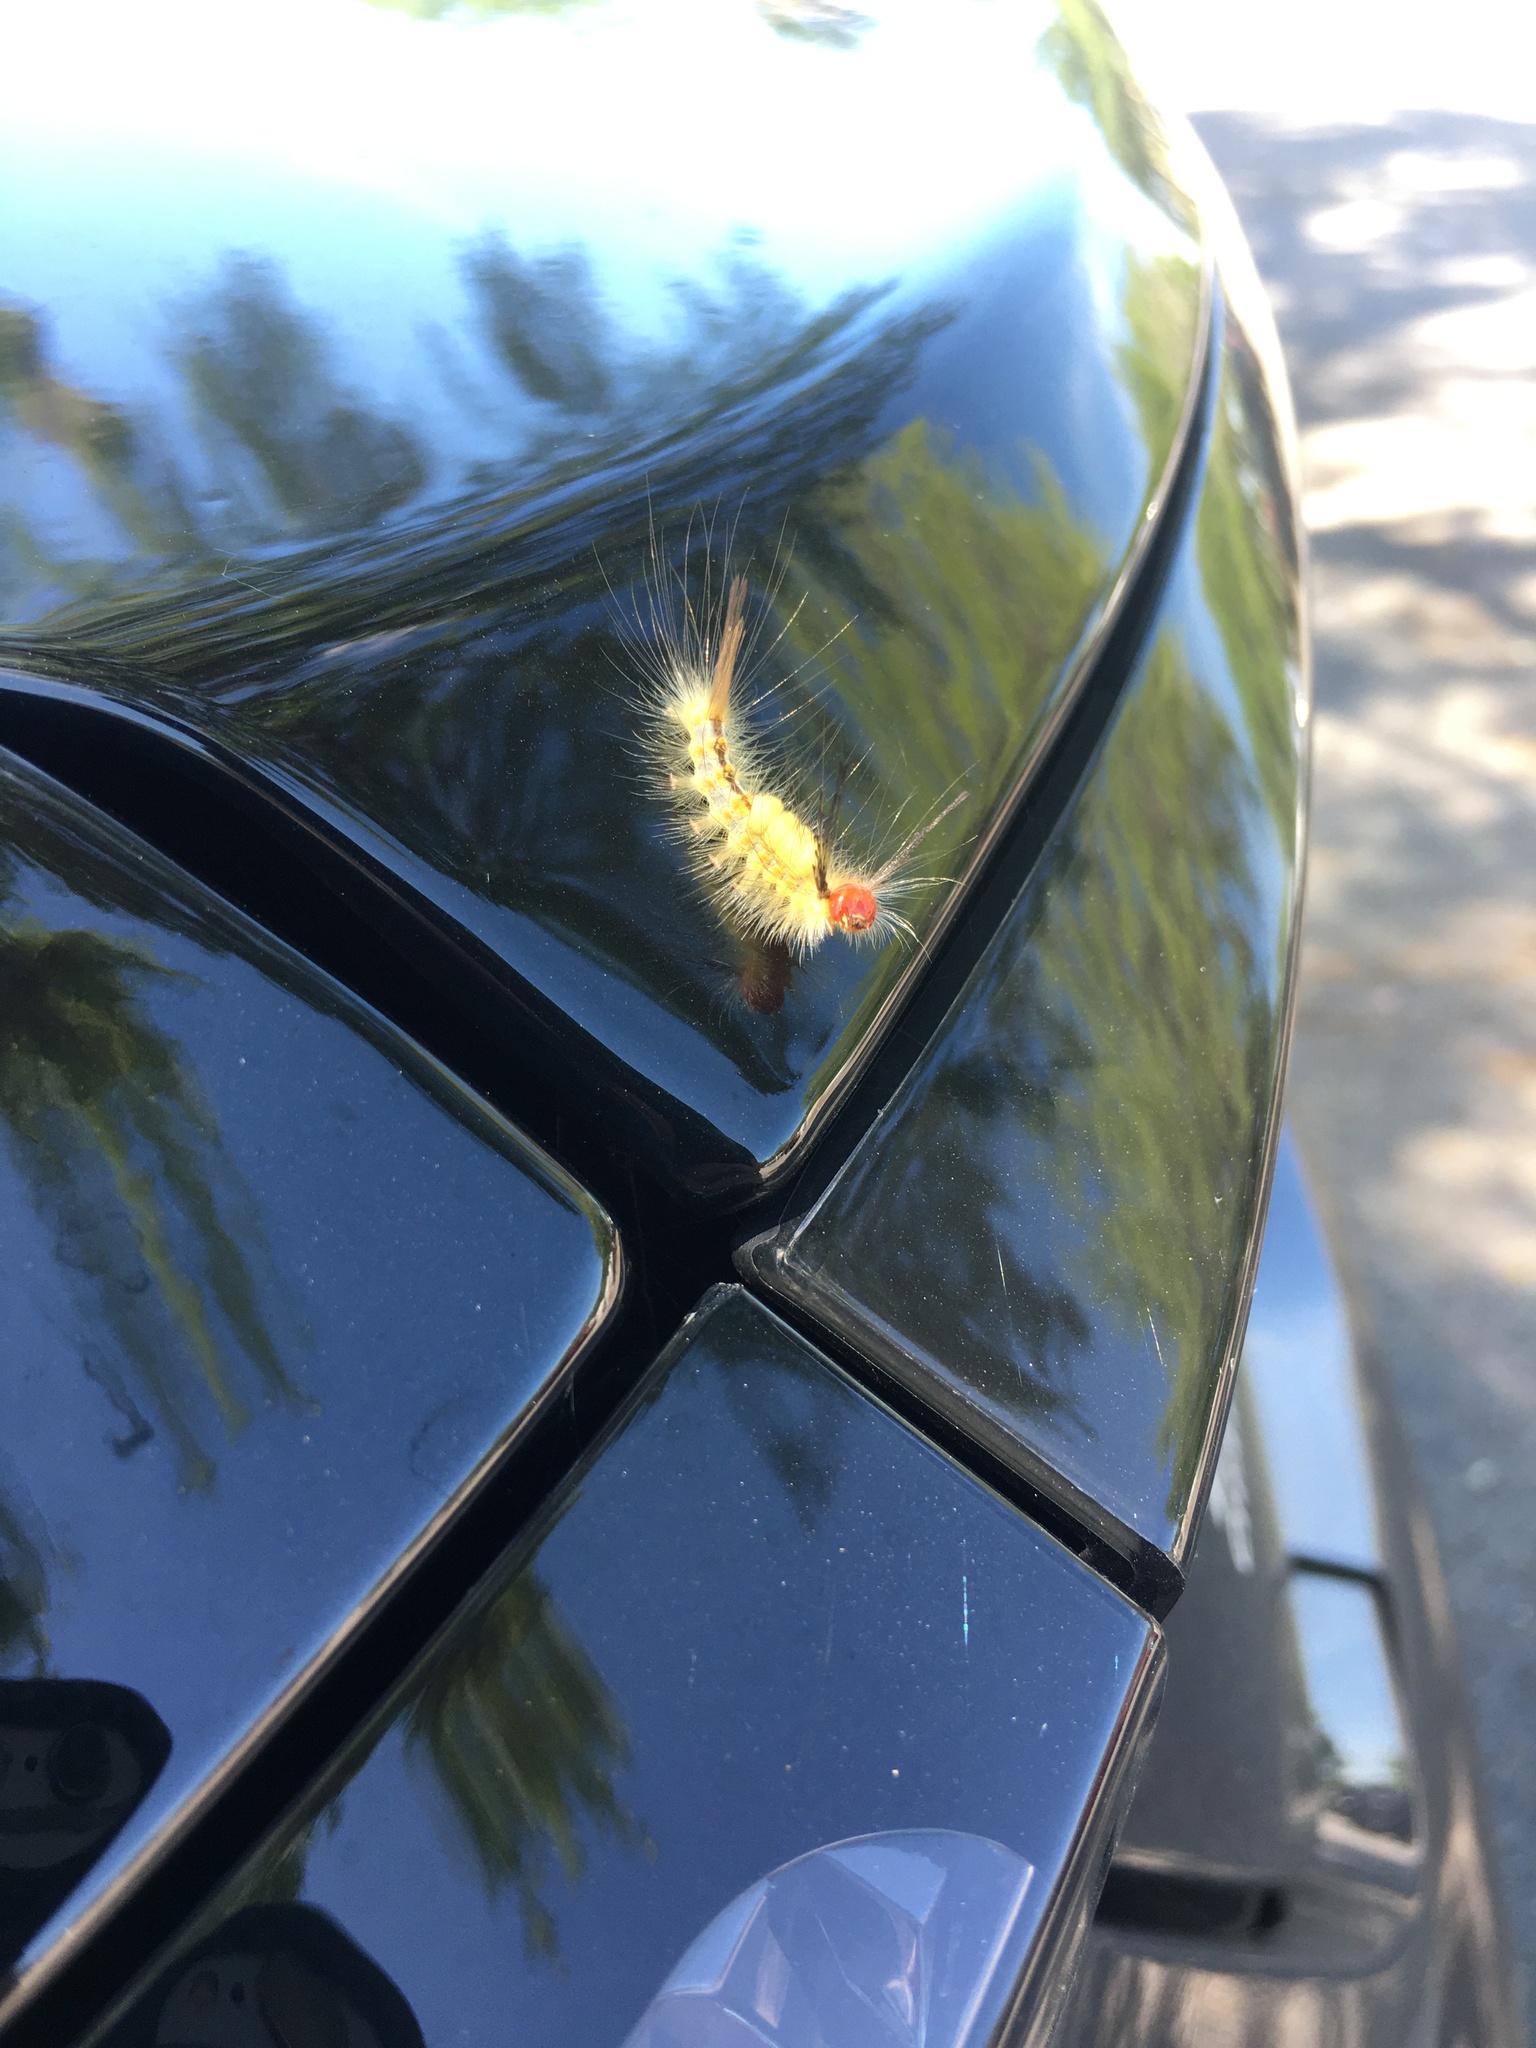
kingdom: Animalia
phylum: Arthropoda
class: Insecta
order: Lepidoptera
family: Erebidae
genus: Orgyia
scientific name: Orgyia detrita
